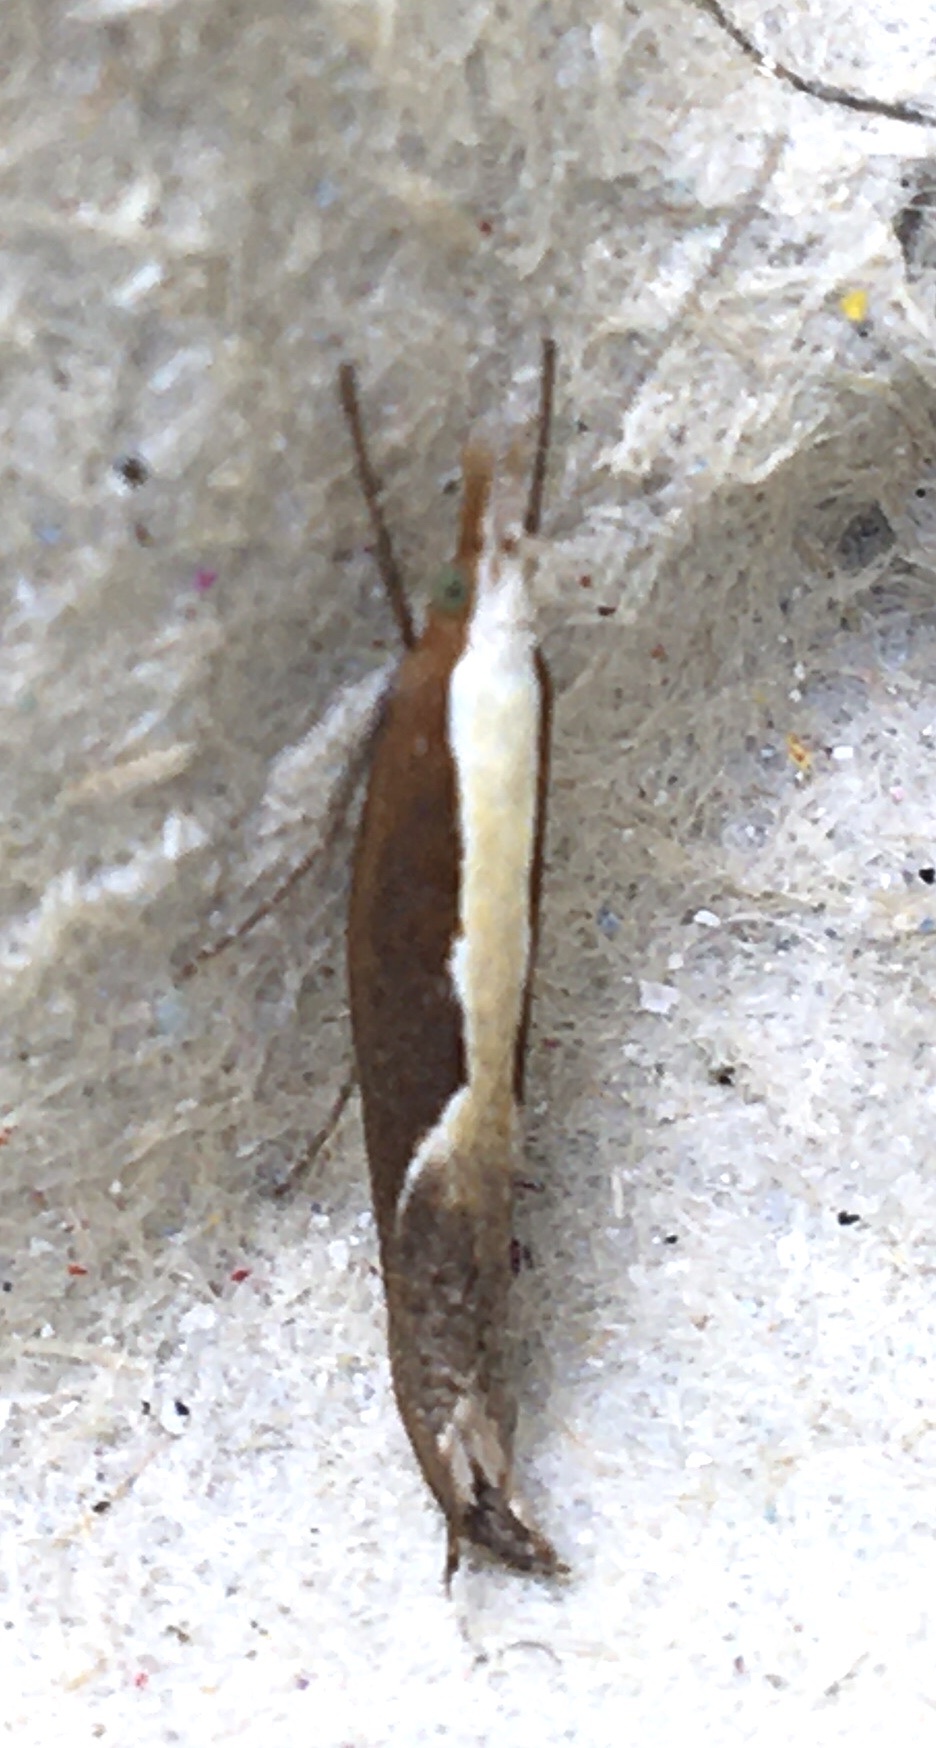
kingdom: Animalia
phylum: Arthropoda
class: Insecta
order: Lepidoptera
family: Ypsolophidae
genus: Ypsolopha
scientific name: Ypsolopha dentella
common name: Honeysuckle moth
